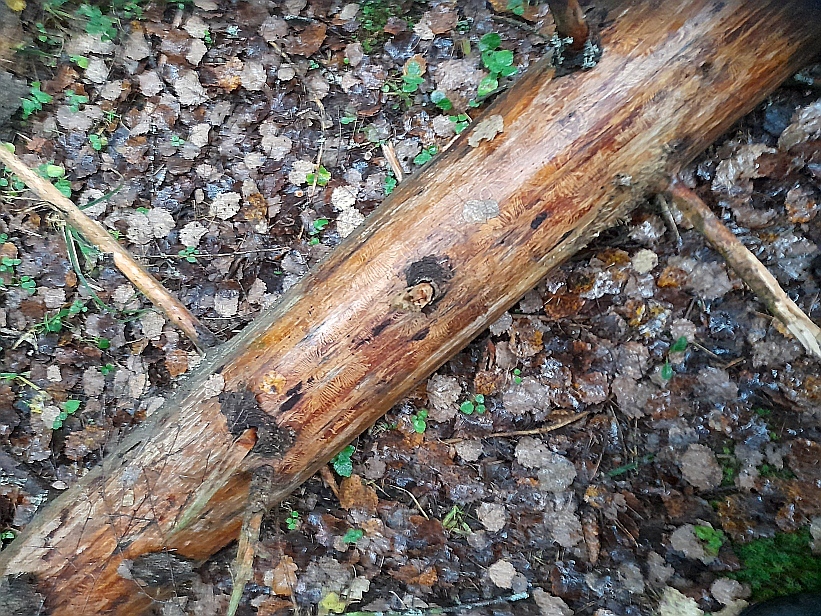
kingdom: Plantae
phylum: Tracheophyta
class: Pinopsida
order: Pinales
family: Pinaceae
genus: Picea
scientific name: Picea abies
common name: Norway spruce
